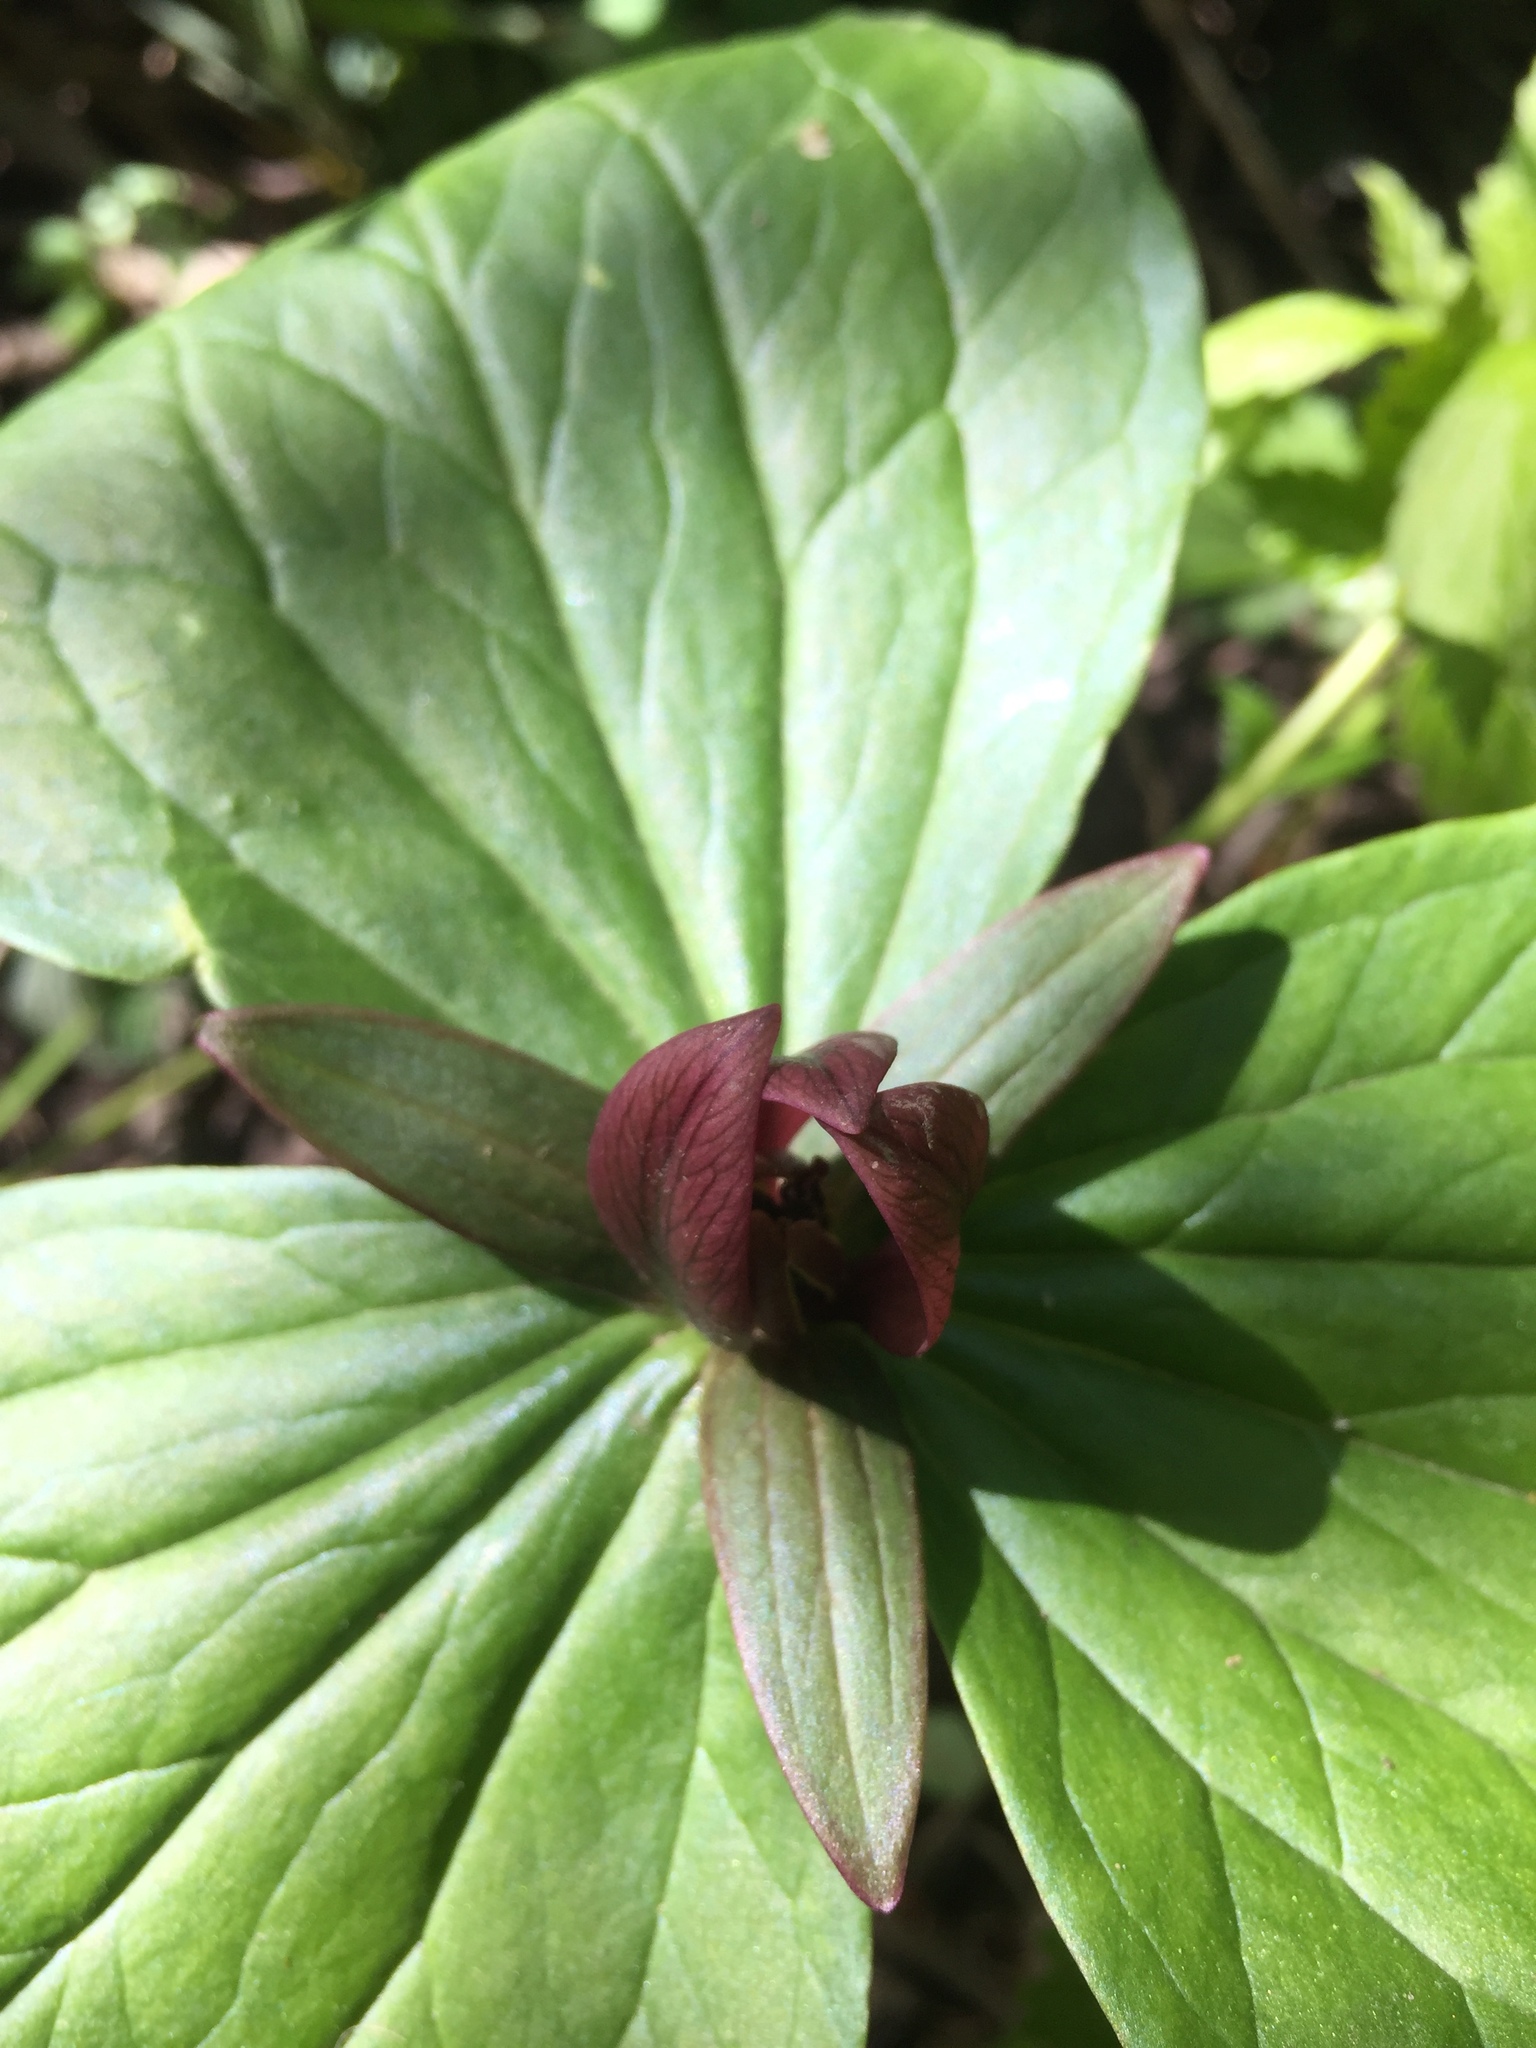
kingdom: Plantae
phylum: Tracheophyta
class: Liliopsida
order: Liliales
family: Melanthiaceae
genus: Trillium
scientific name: Trillium sessile
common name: Sessile trillium
